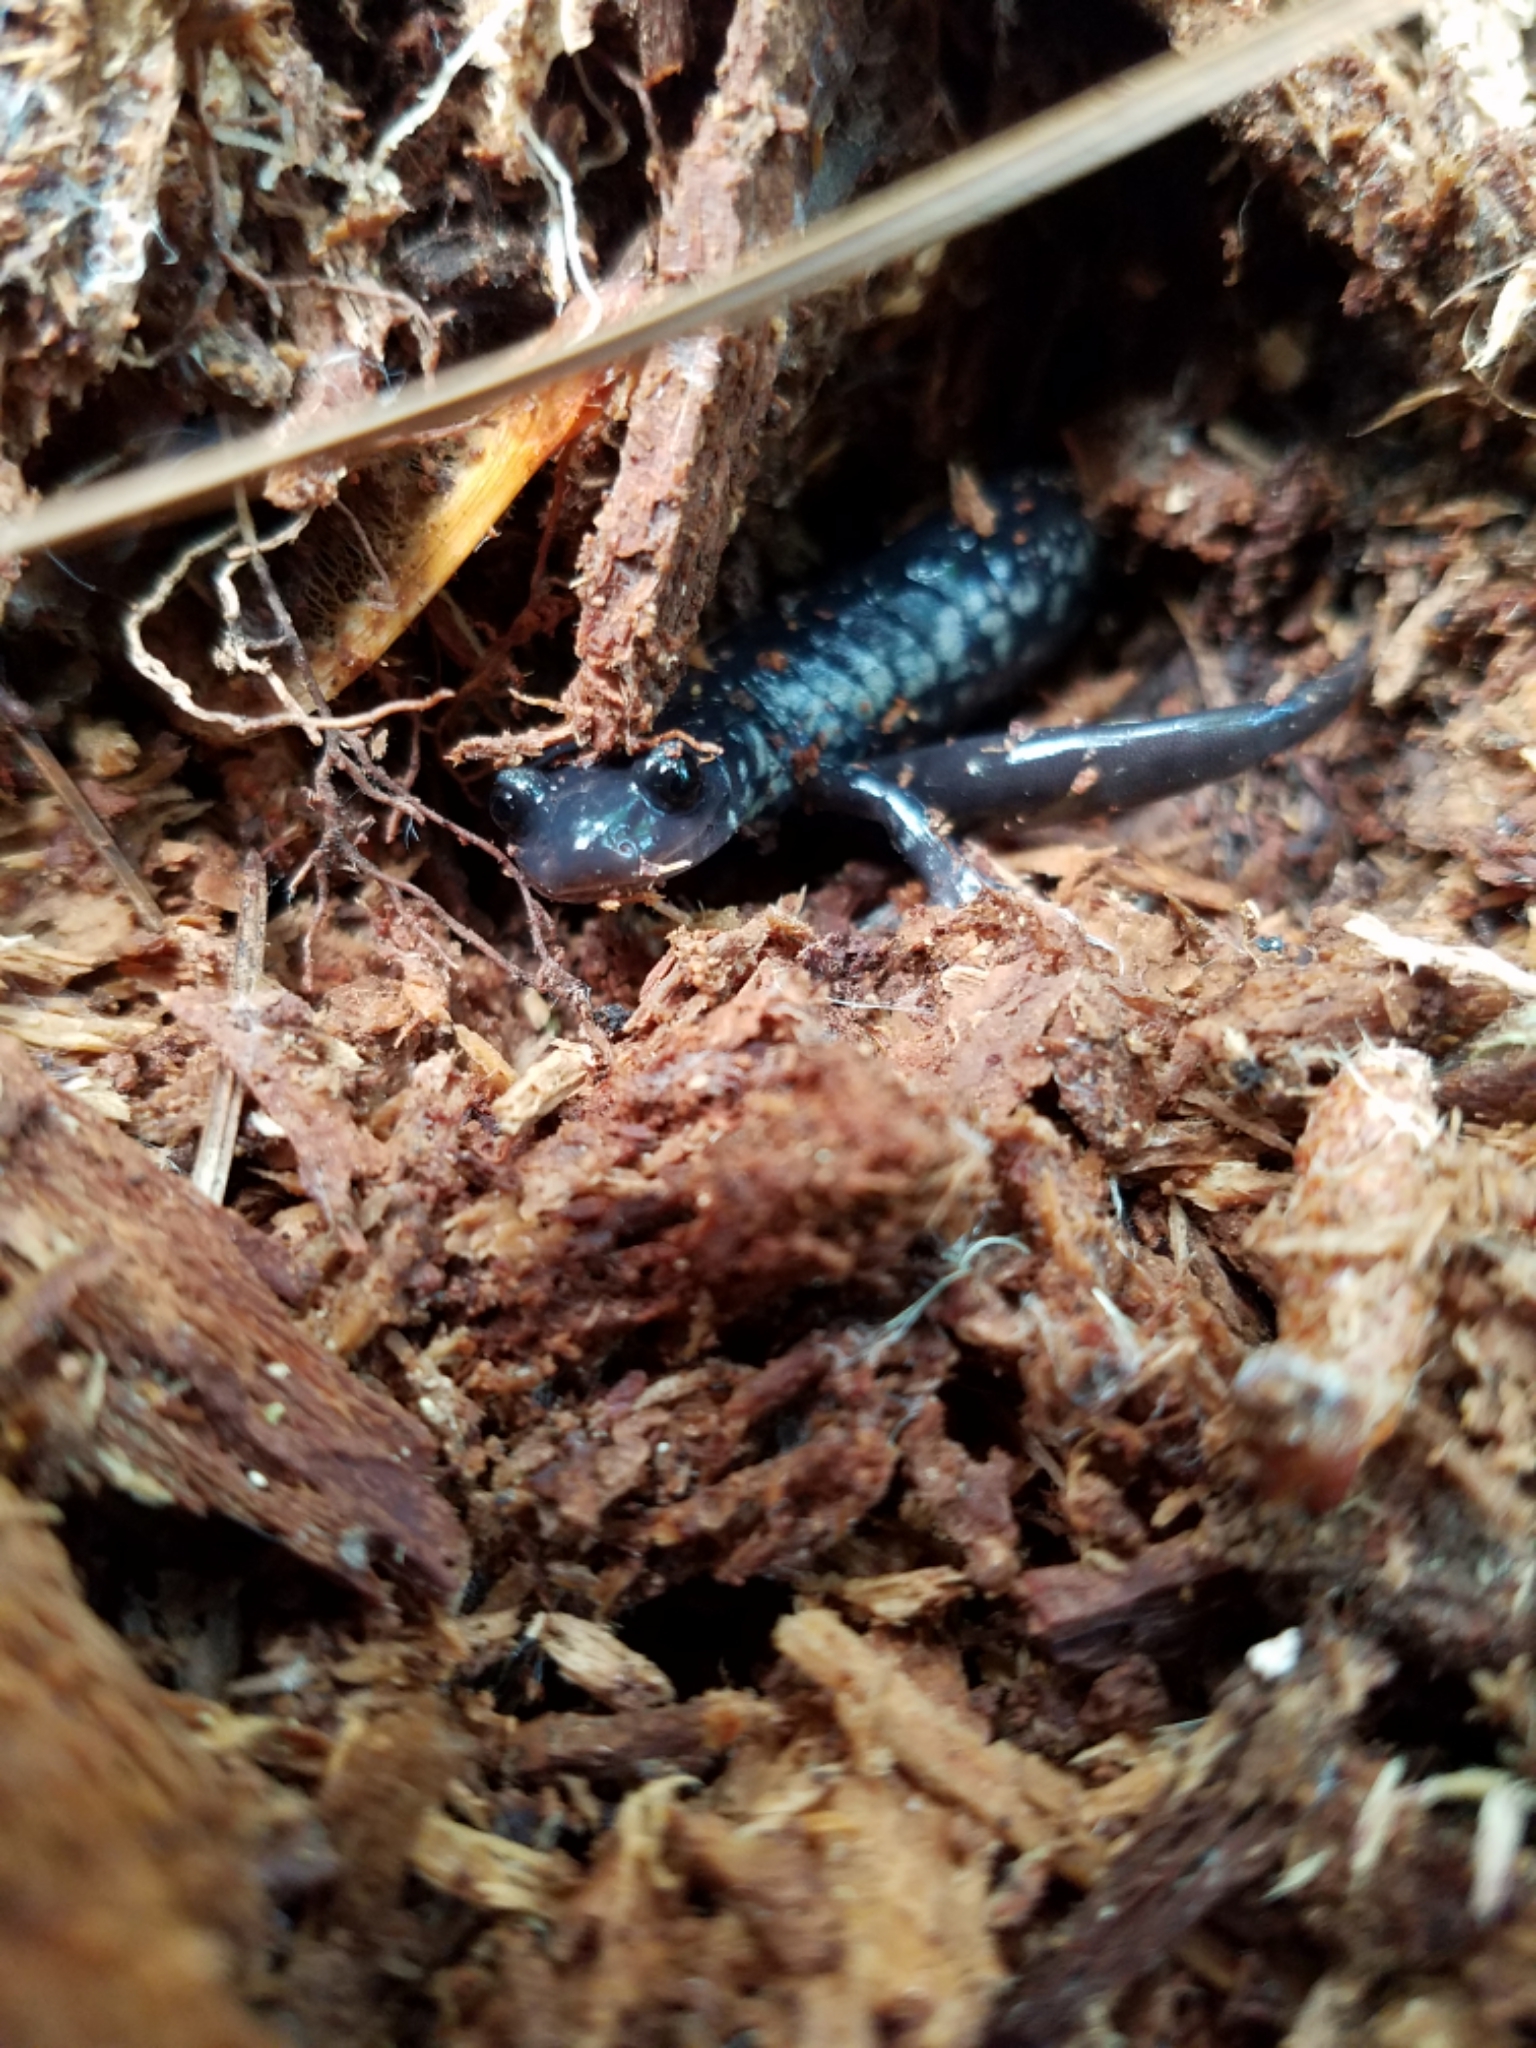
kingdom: Animalia
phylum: Chordata
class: Amphibia
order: Caudata
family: Plethodontidae
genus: Plethodon
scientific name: Plethodon chlorobryonis
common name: Atlantic coast slimy salamander
